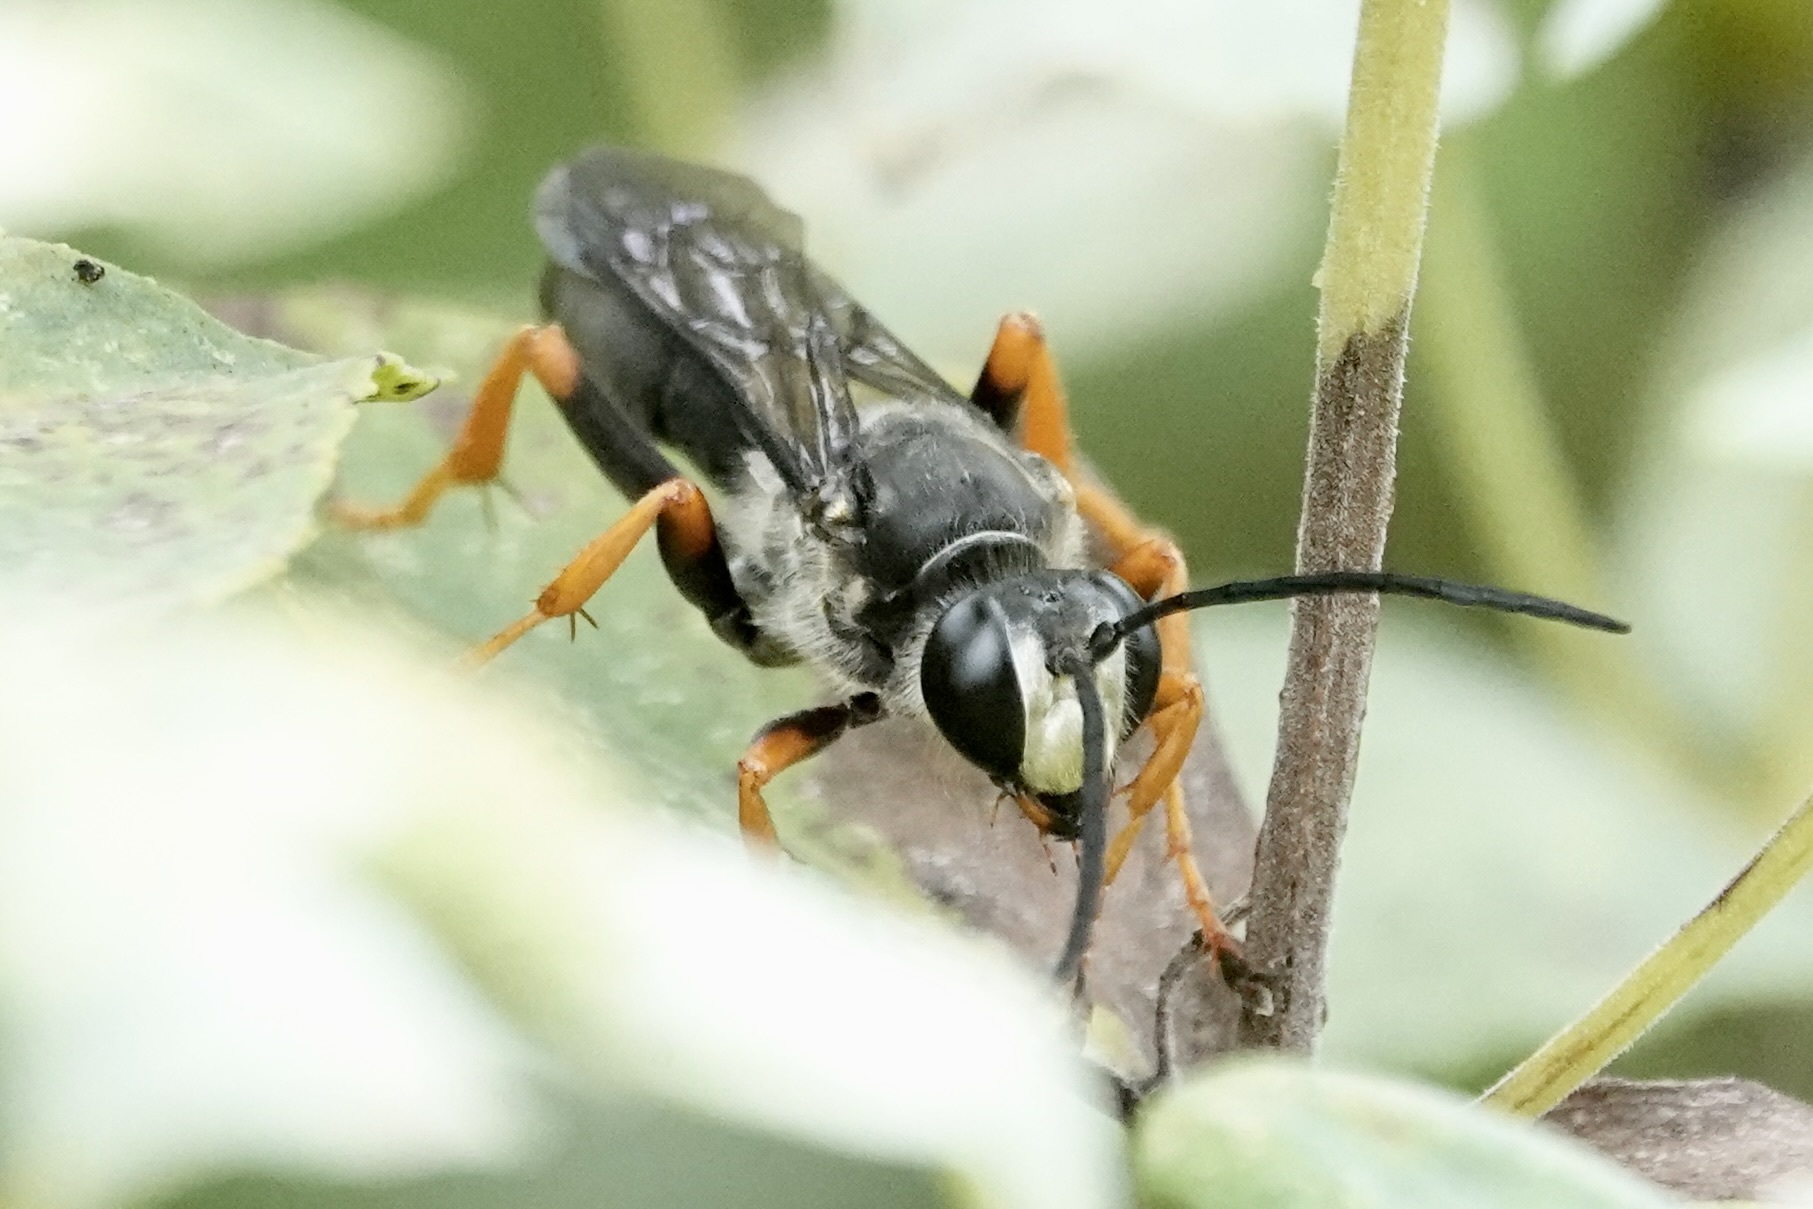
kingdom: Animalia
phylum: Arthropoda
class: Insecta
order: Hymenoptera
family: Sphecidae
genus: Sphex
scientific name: Sphex nudus
